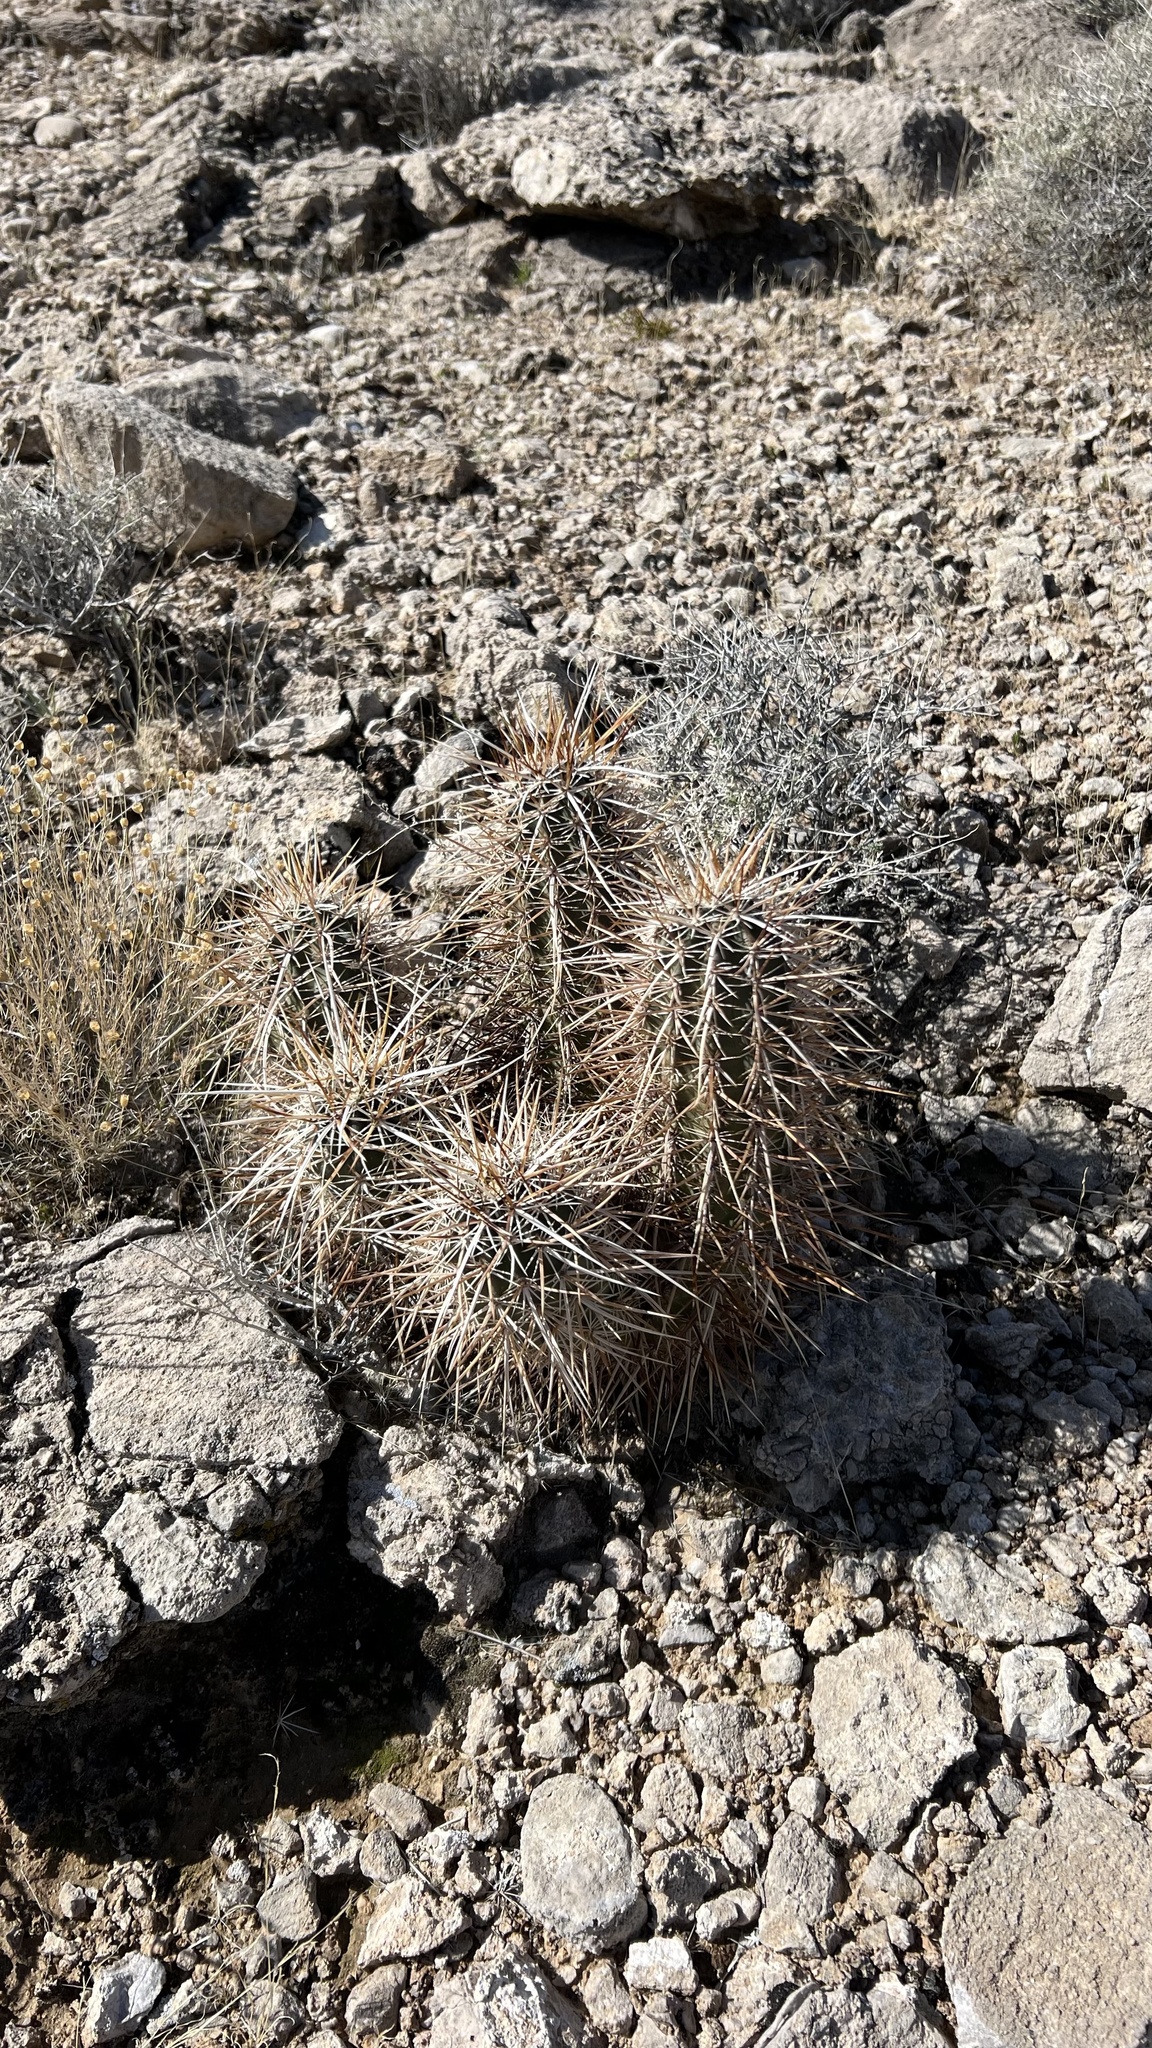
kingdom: Plantae
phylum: Tracheophyta
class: Magnoliopsida
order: Caryophyllales
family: Cactaceae
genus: Echinocereus
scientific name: Echinocereus engelmannii
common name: Engelmann's hedgehog cactus
